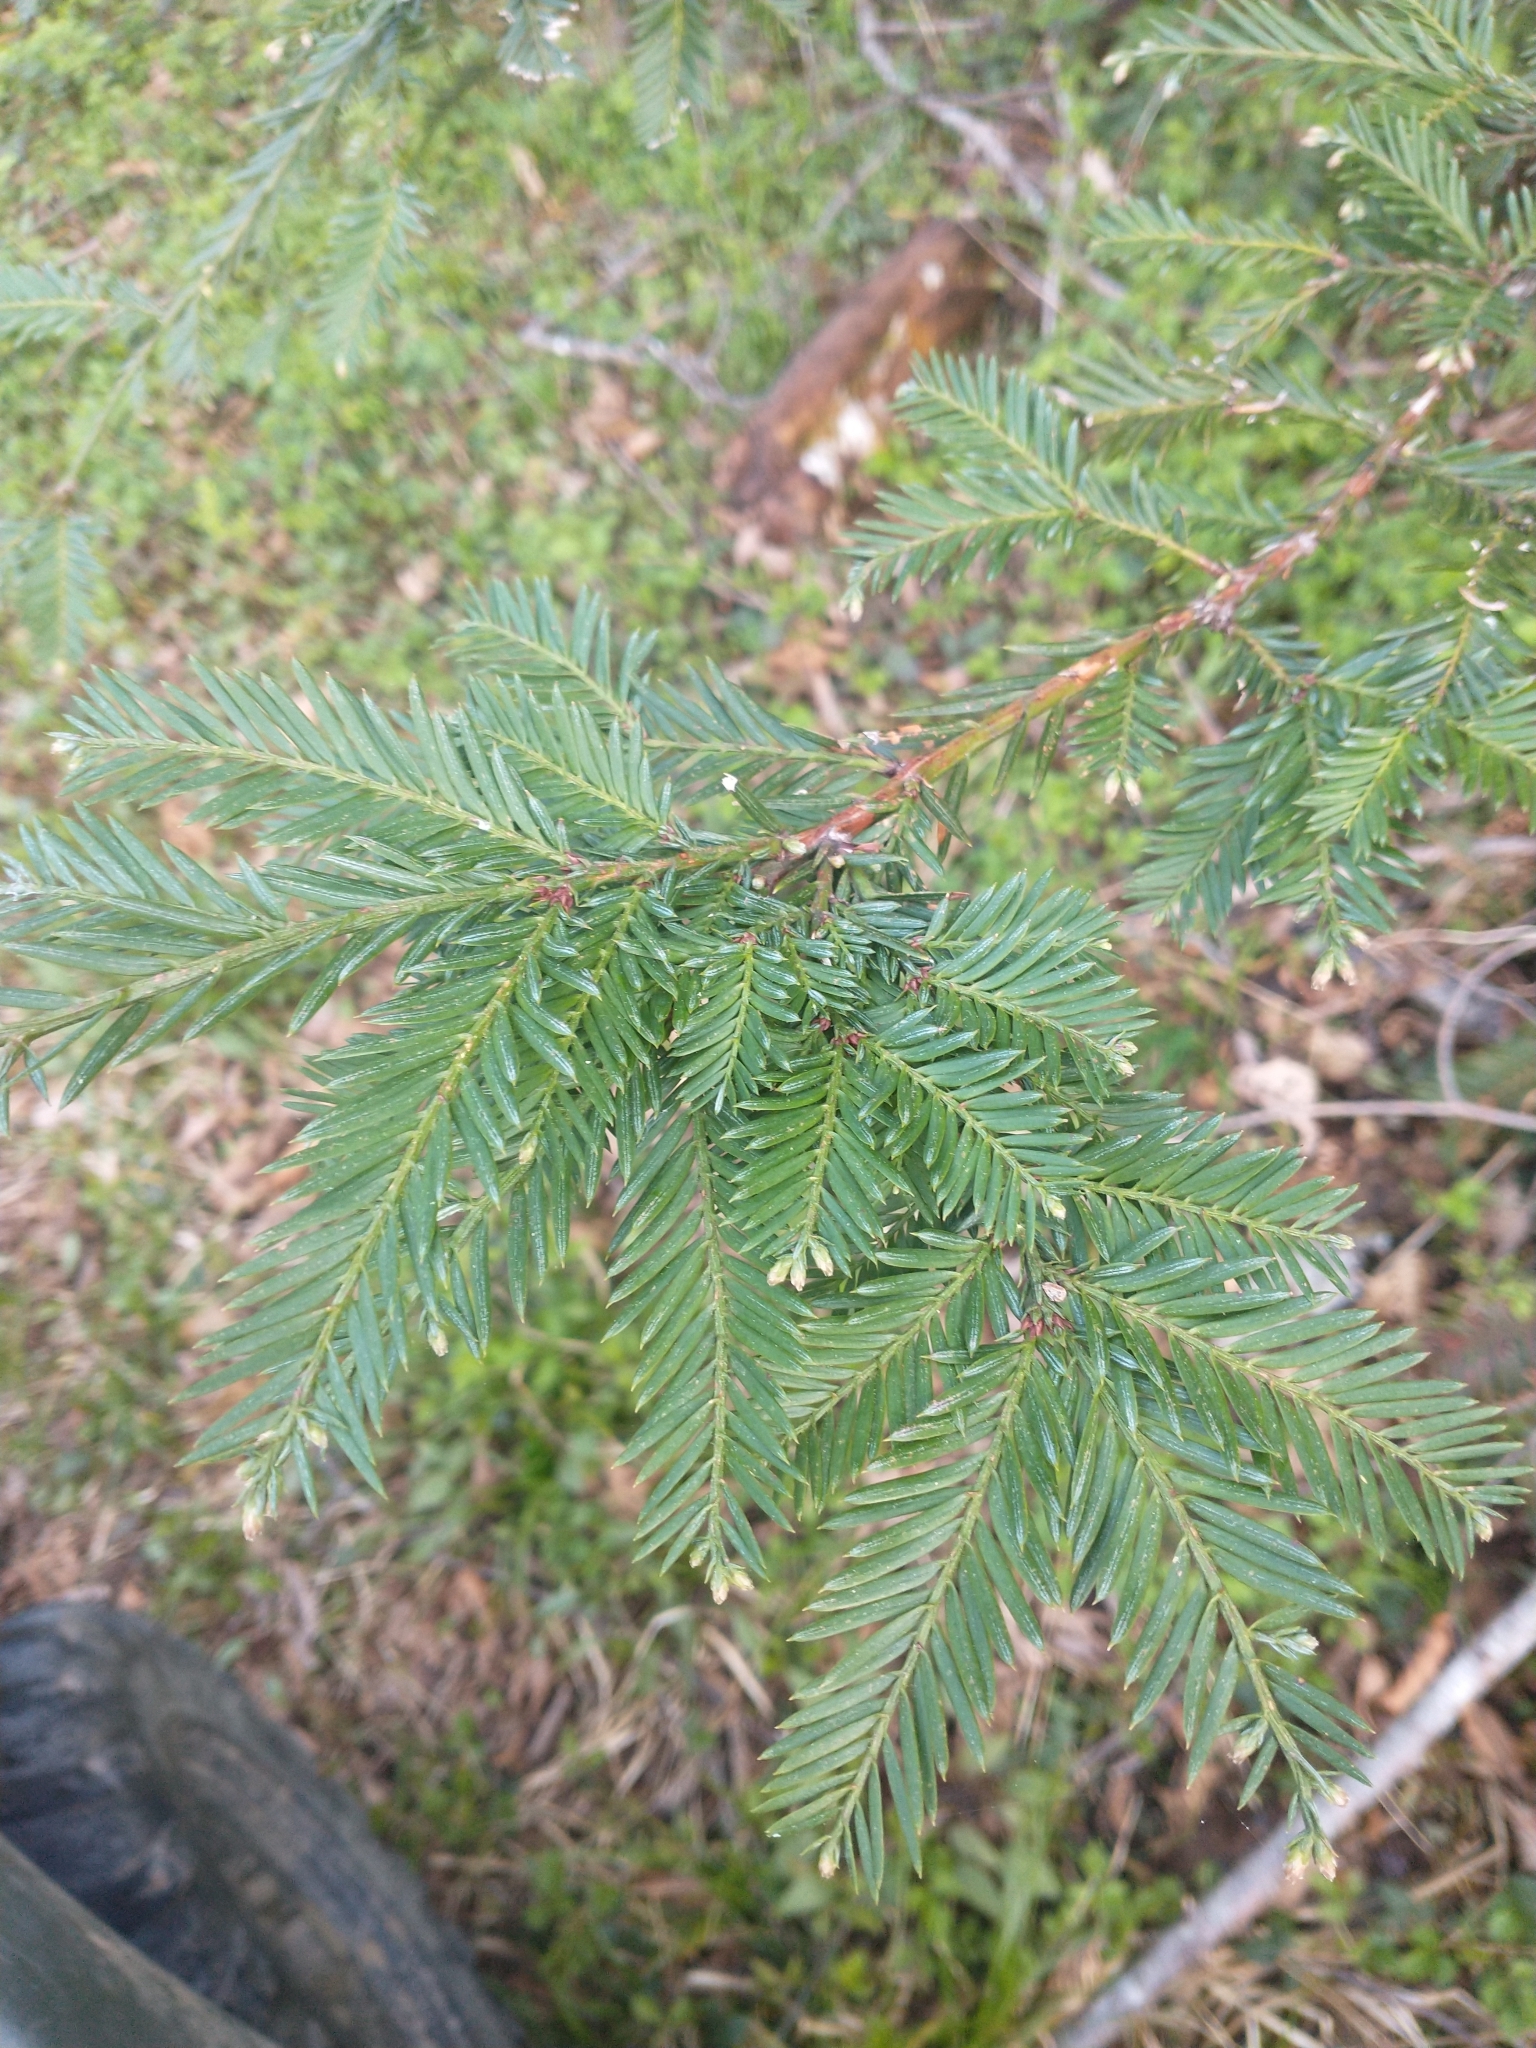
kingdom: Plantae
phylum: Tracheophyta
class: Pinopsida
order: Pinales
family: Cupressaceae
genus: Sequoia
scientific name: Sequoia sempervirens
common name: Coast redwood
